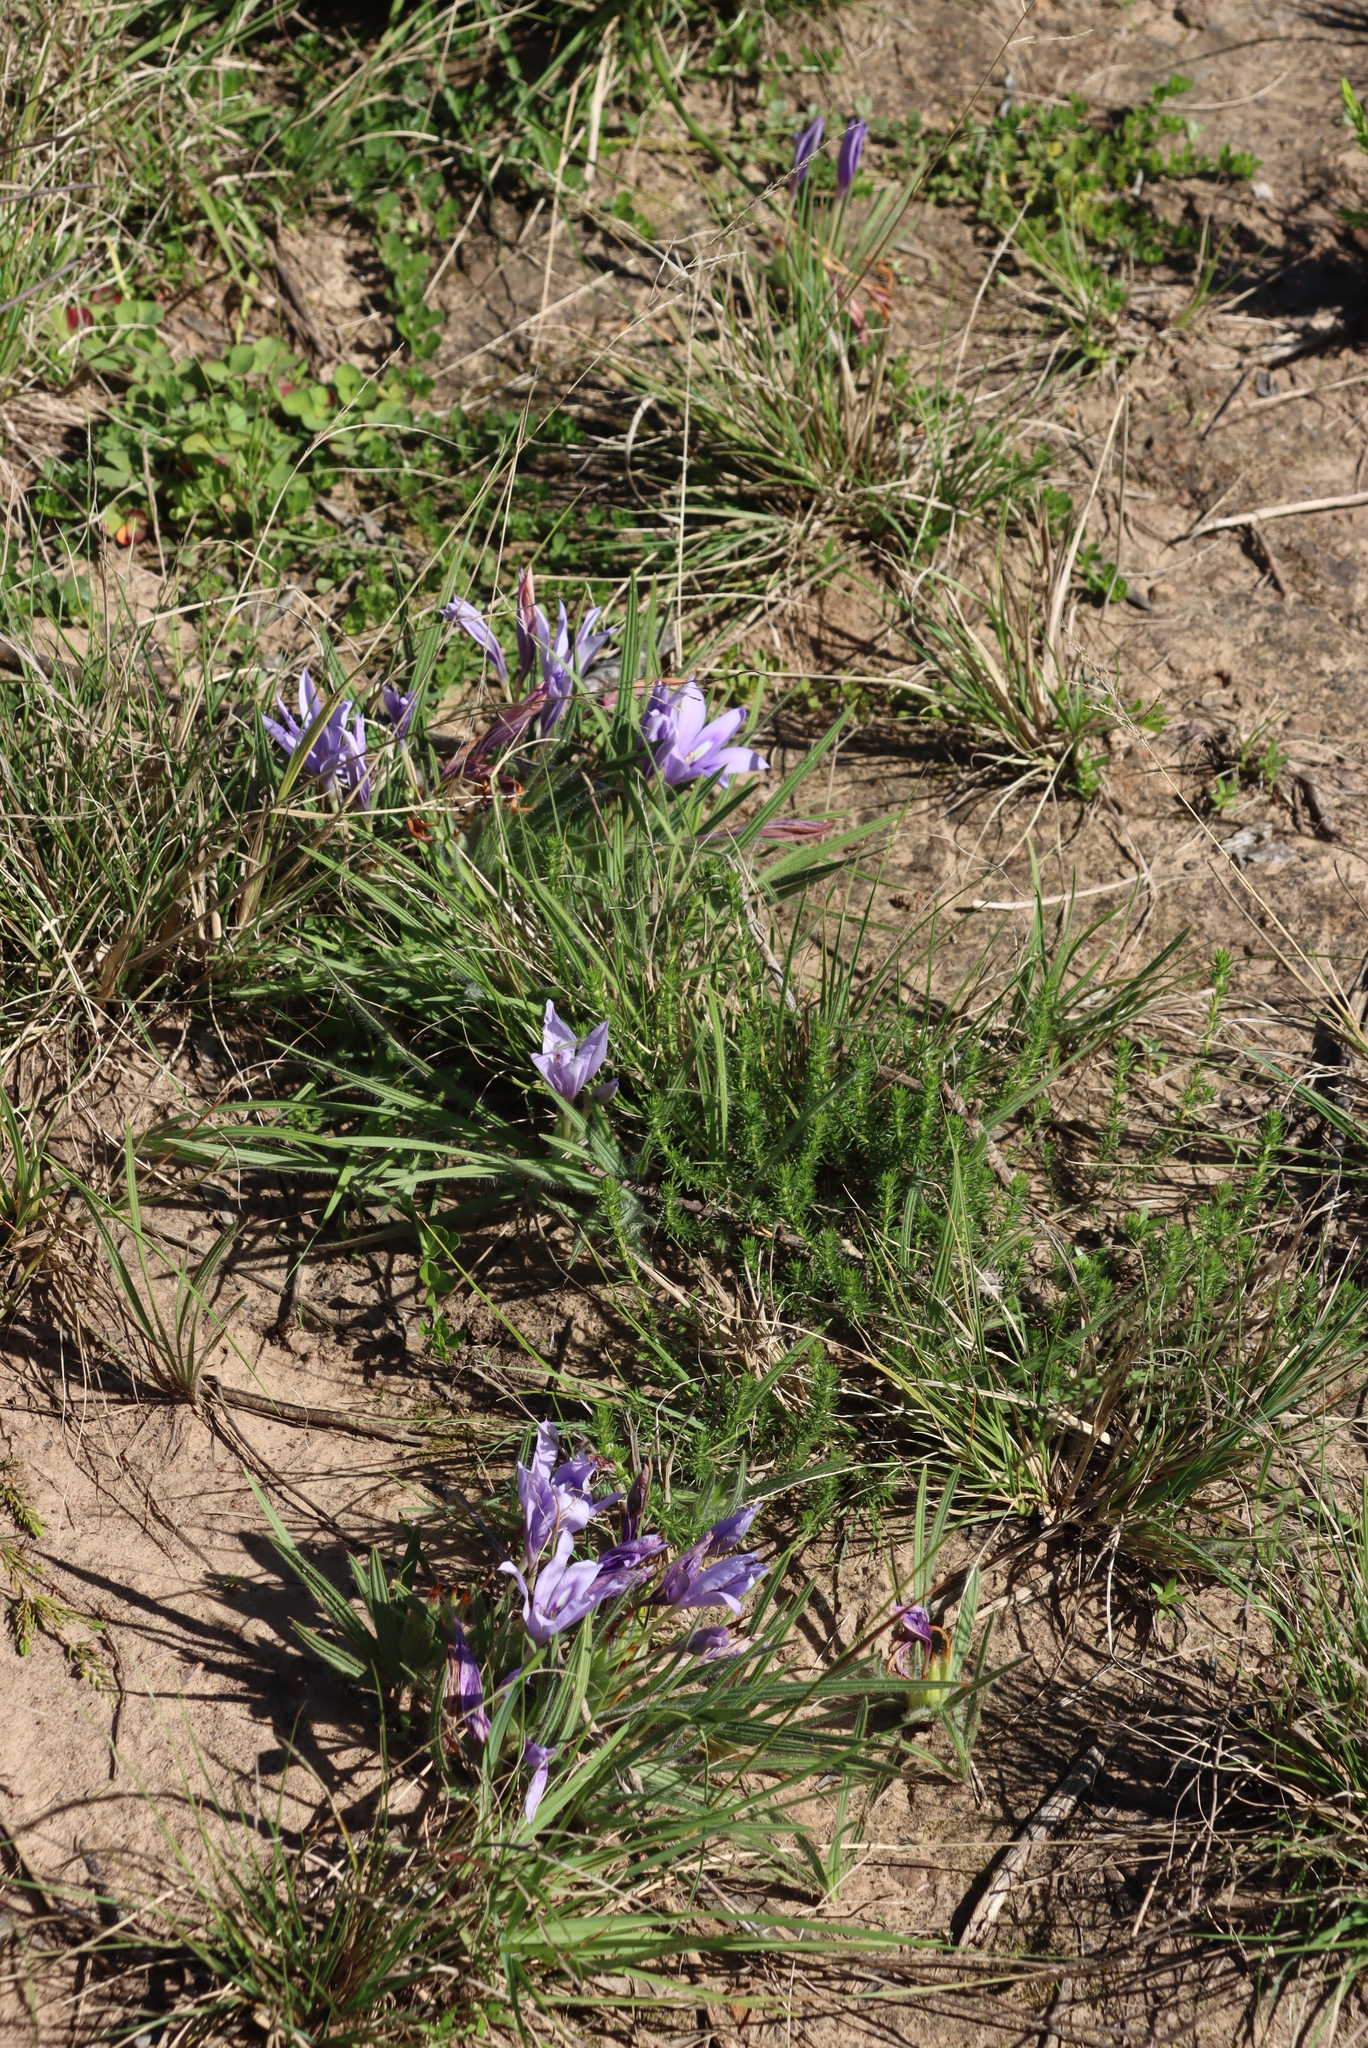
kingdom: Plantae
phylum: Tracheophyta
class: Liliopsida
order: Asparagales
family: Iridaceae
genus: Babiana
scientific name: Babiana sambucina
